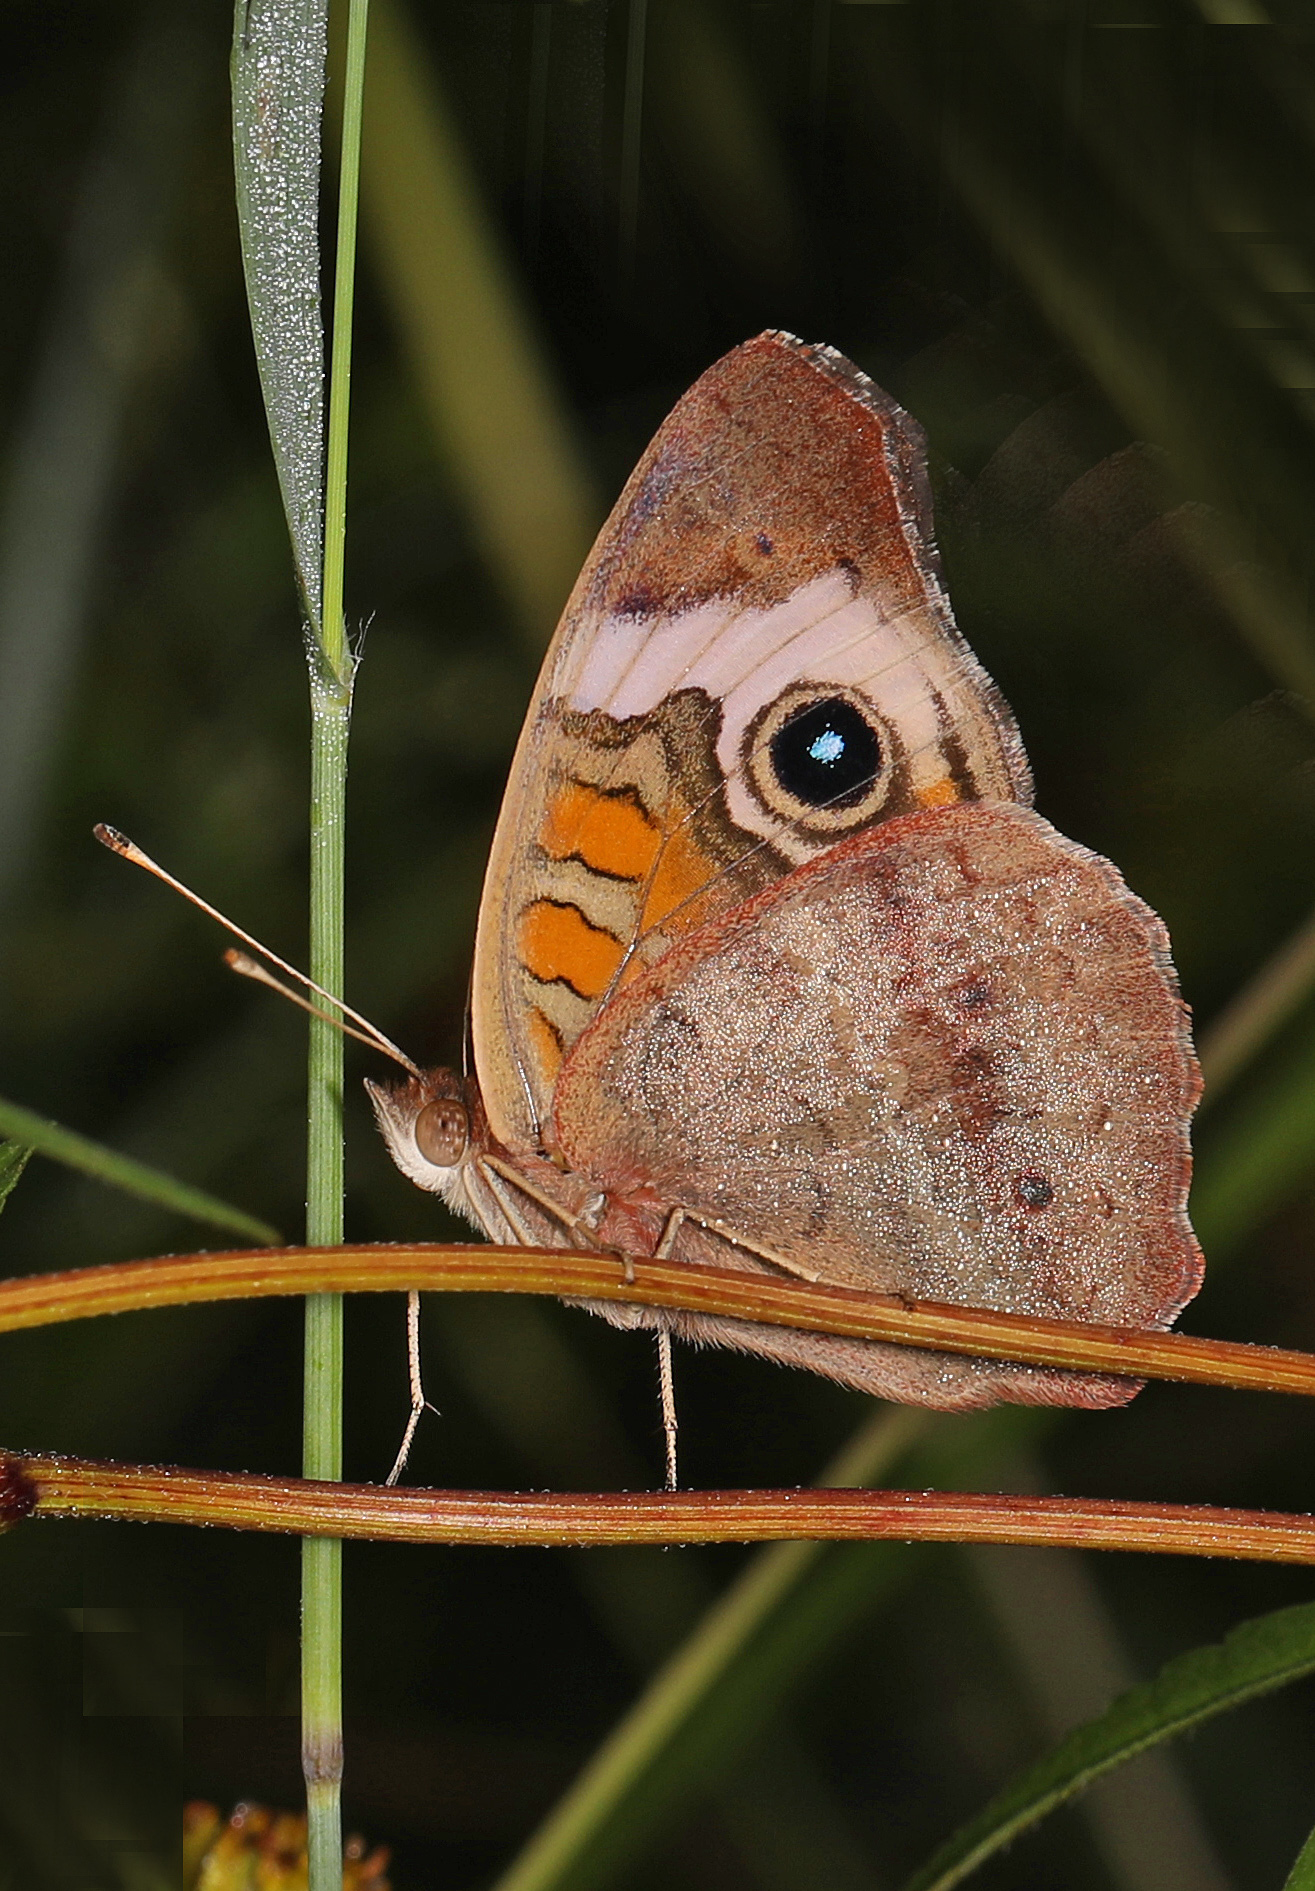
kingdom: Animalia
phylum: Arthropoda
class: Insecta
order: Lepidoptera
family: Nymphalidae
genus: Junonia
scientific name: Junonia coenia
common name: Common buckeye
